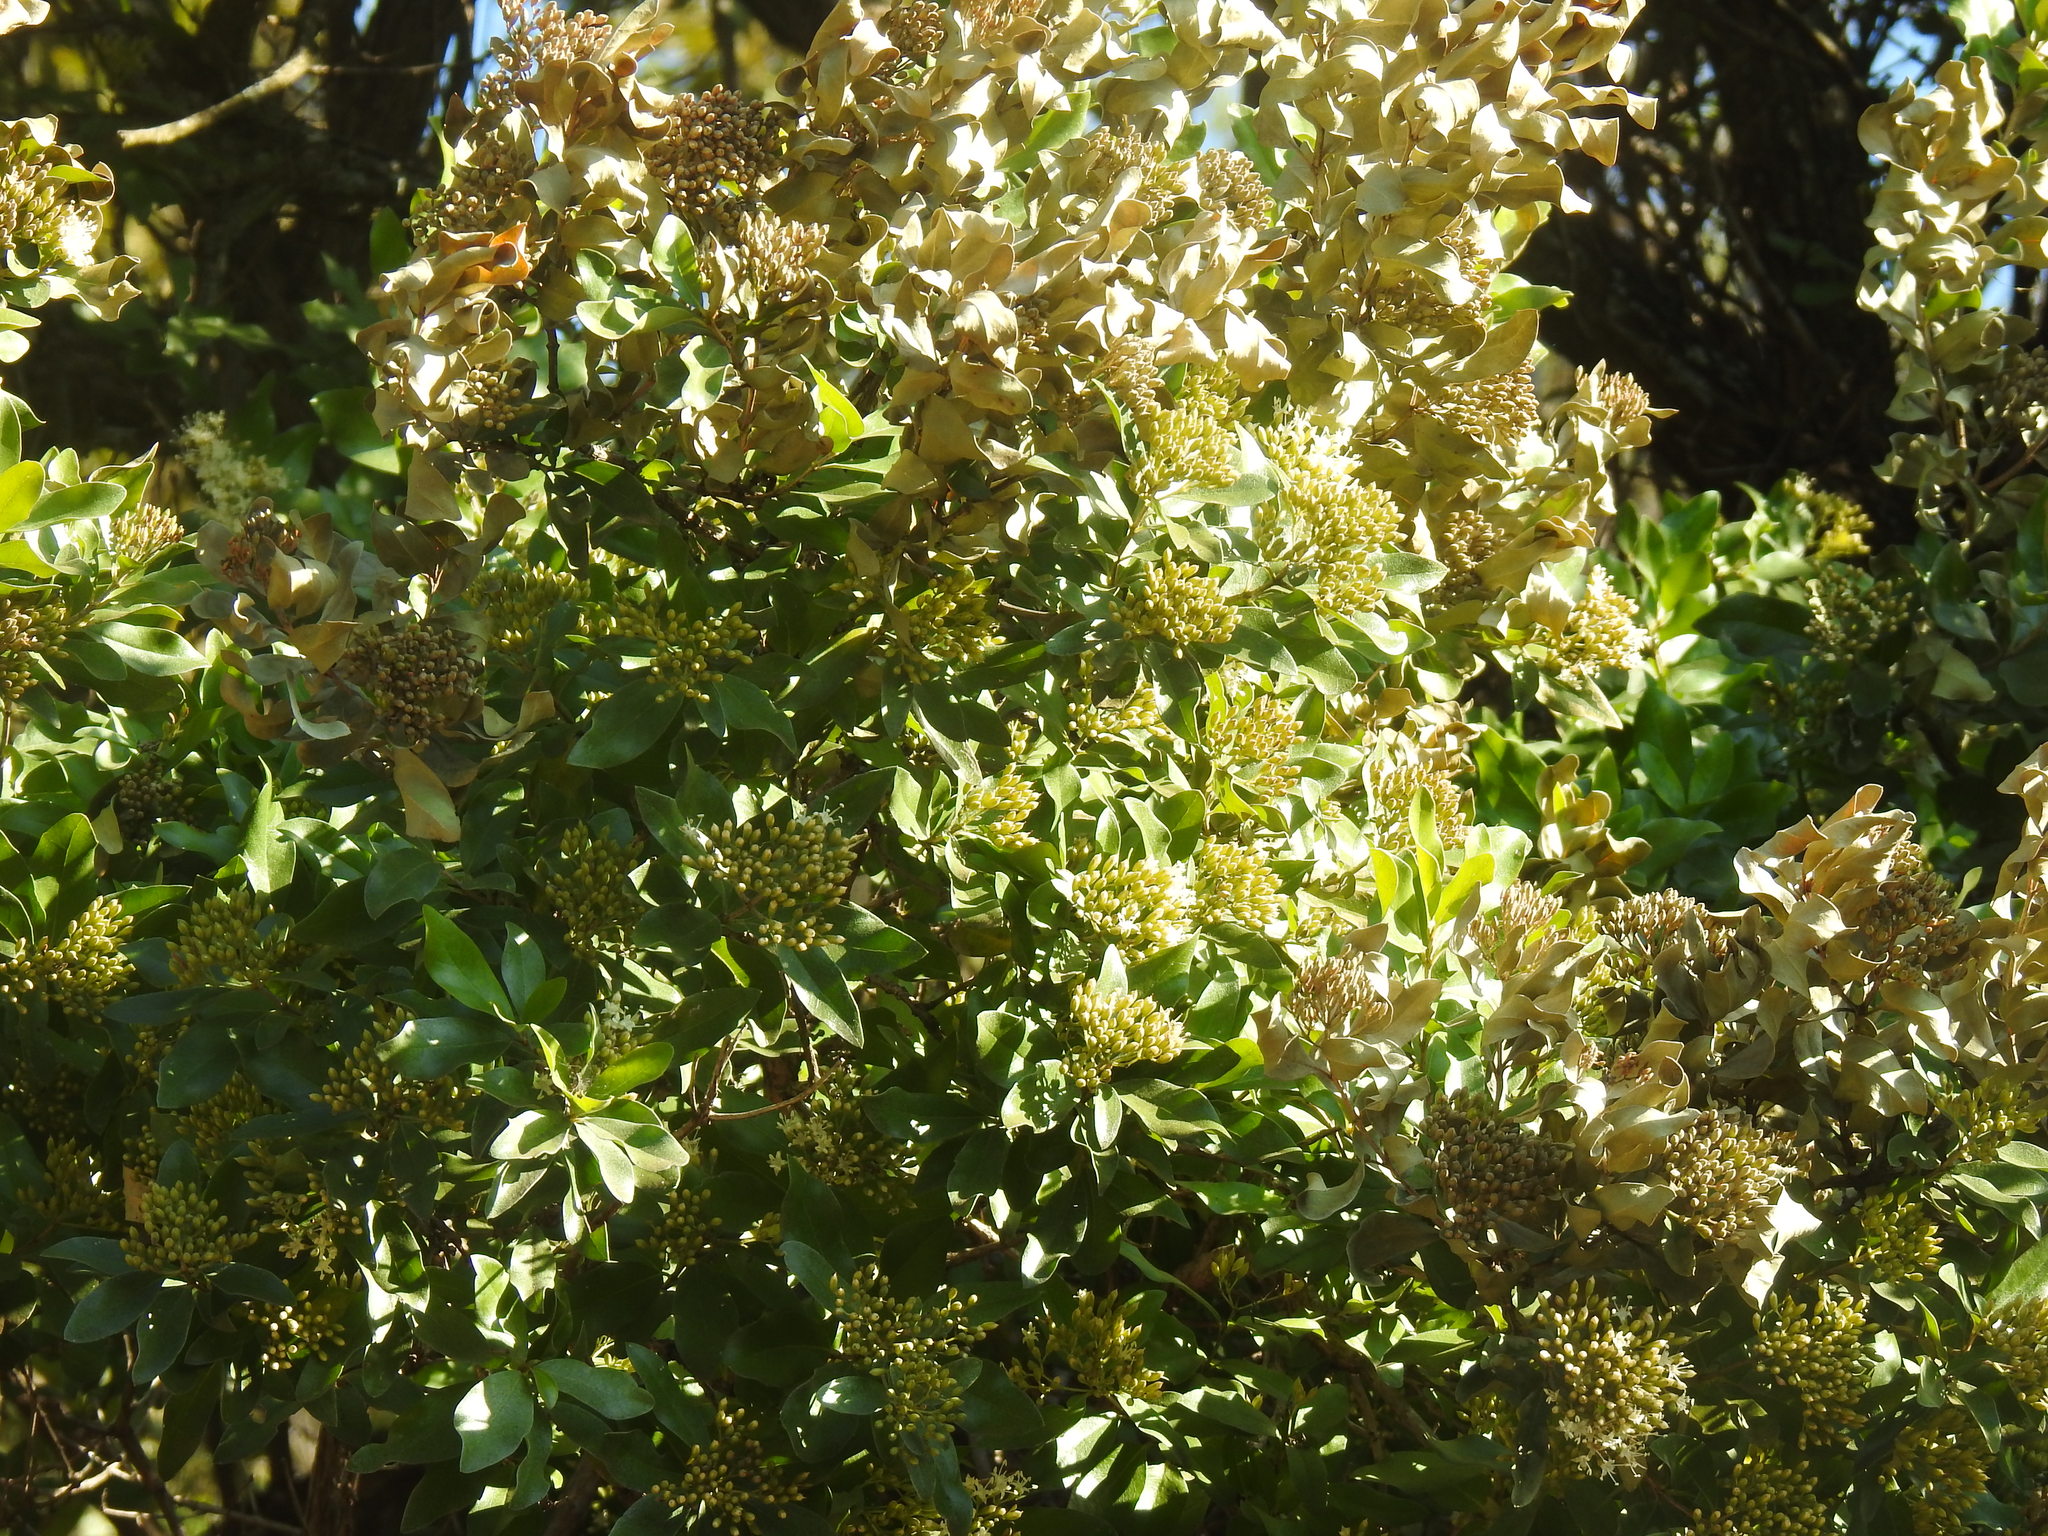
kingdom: Plantae
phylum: Tracheophyta
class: Magnoliopsida
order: Lamiales
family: Stilbaceae
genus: Nuxia
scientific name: Nuxia congesta
